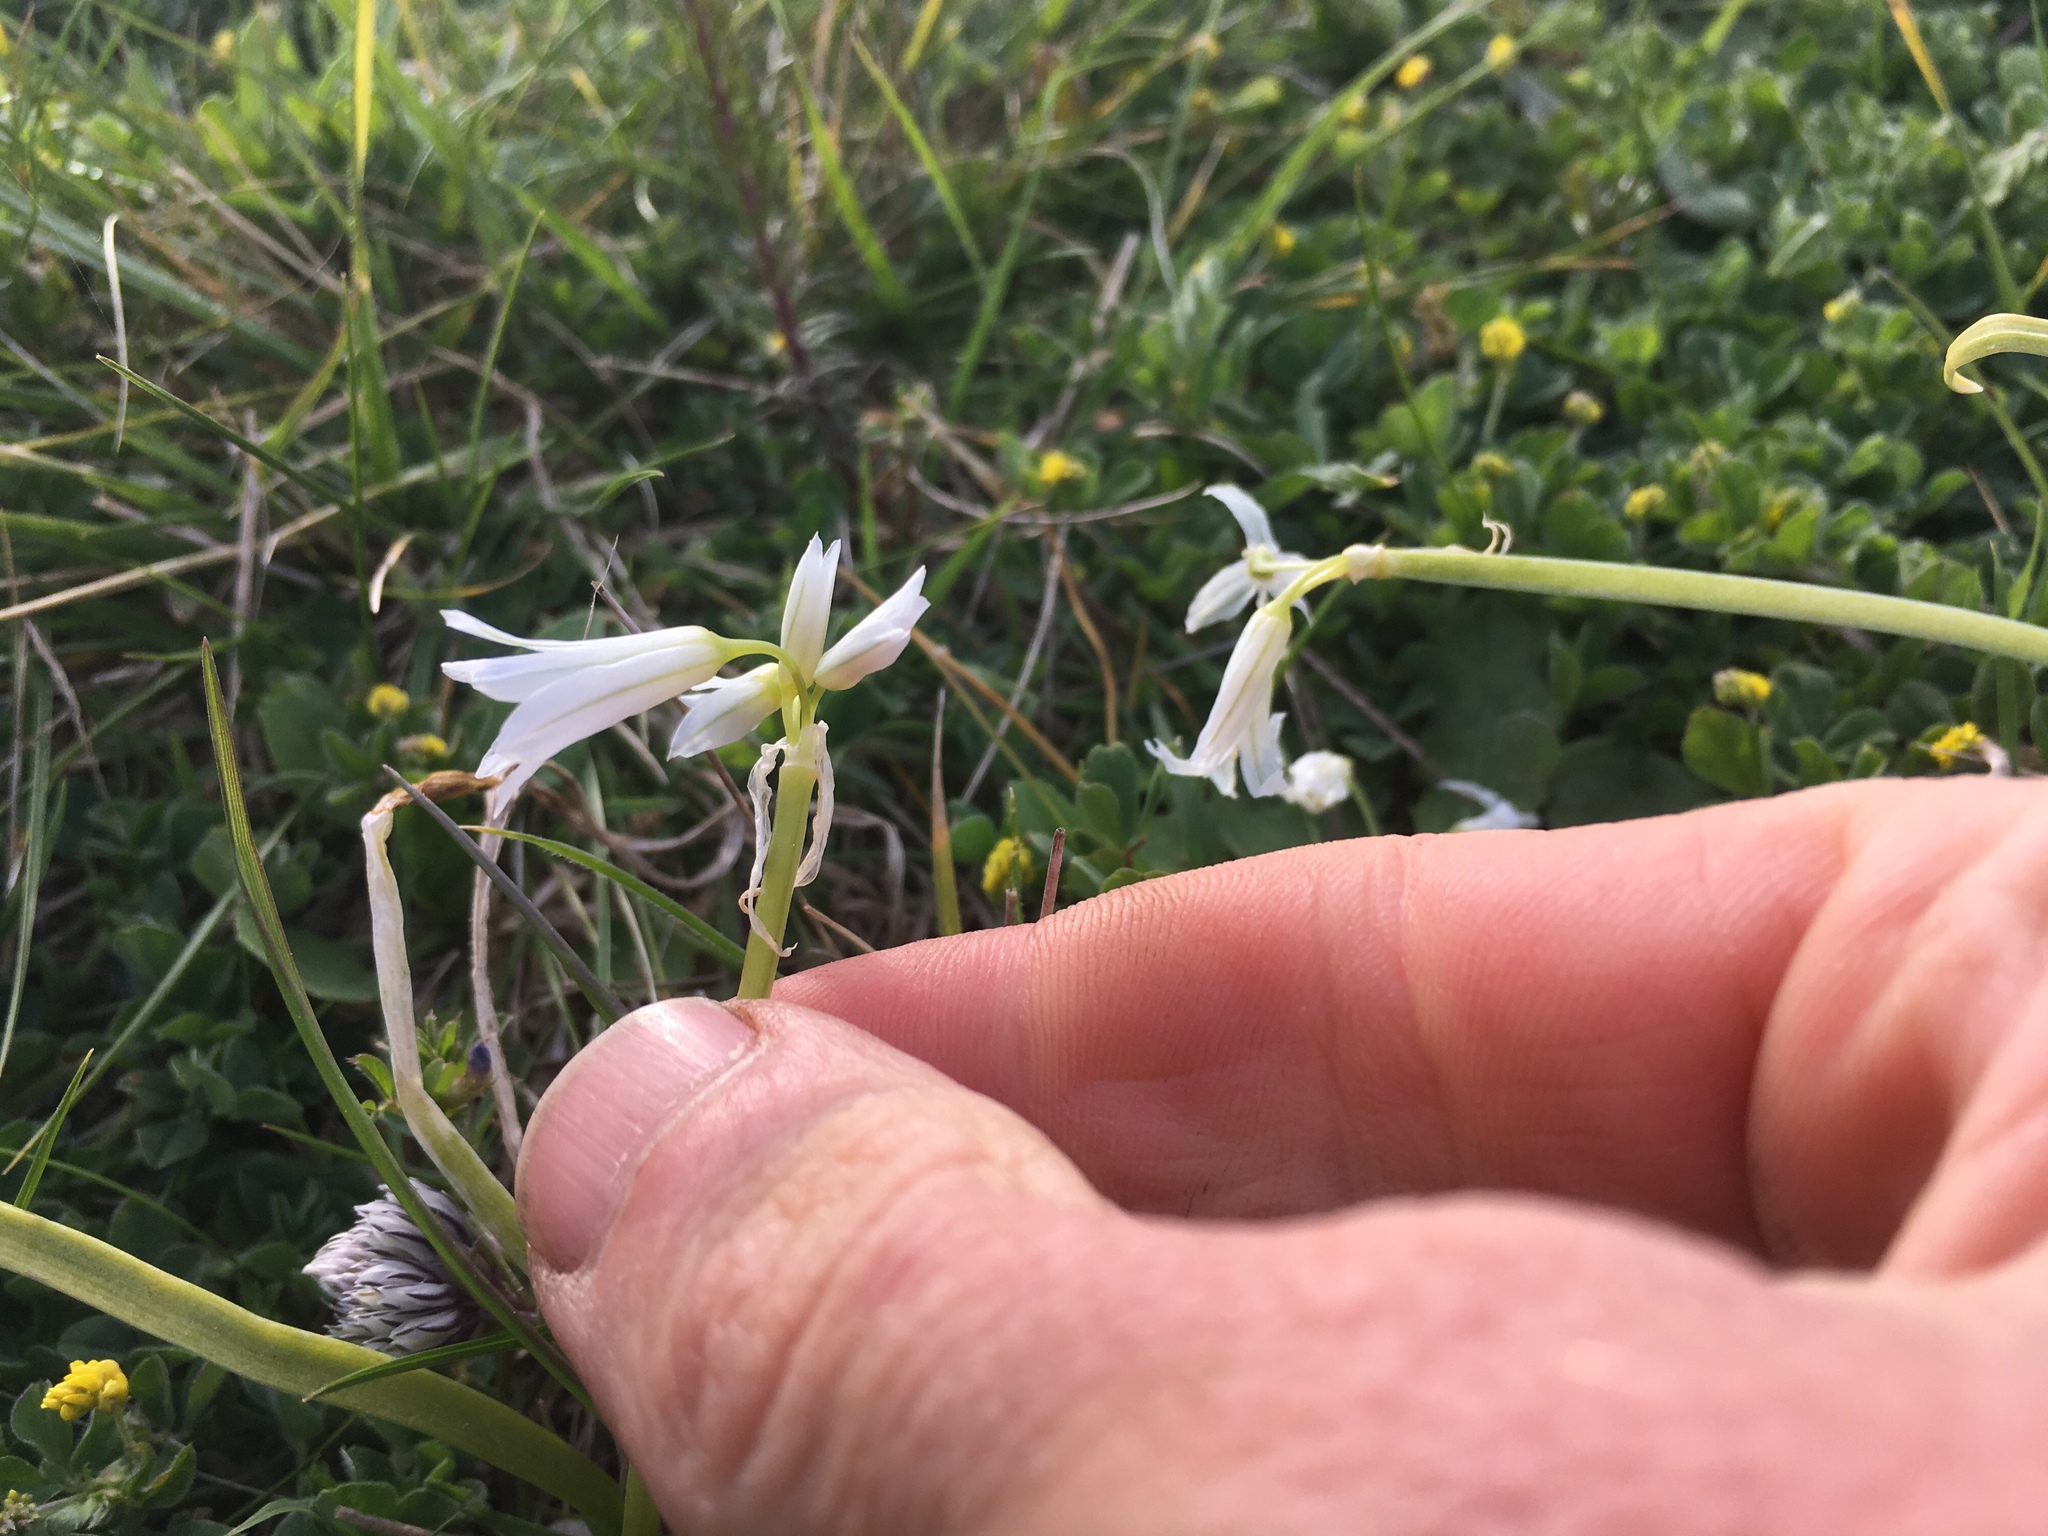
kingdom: Plantae
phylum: Tracheophyta
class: Liliopsida
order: Asparagales
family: Amaryllidaceae
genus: Allium
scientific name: Allium triquetrum
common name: Three-cornered garlic
